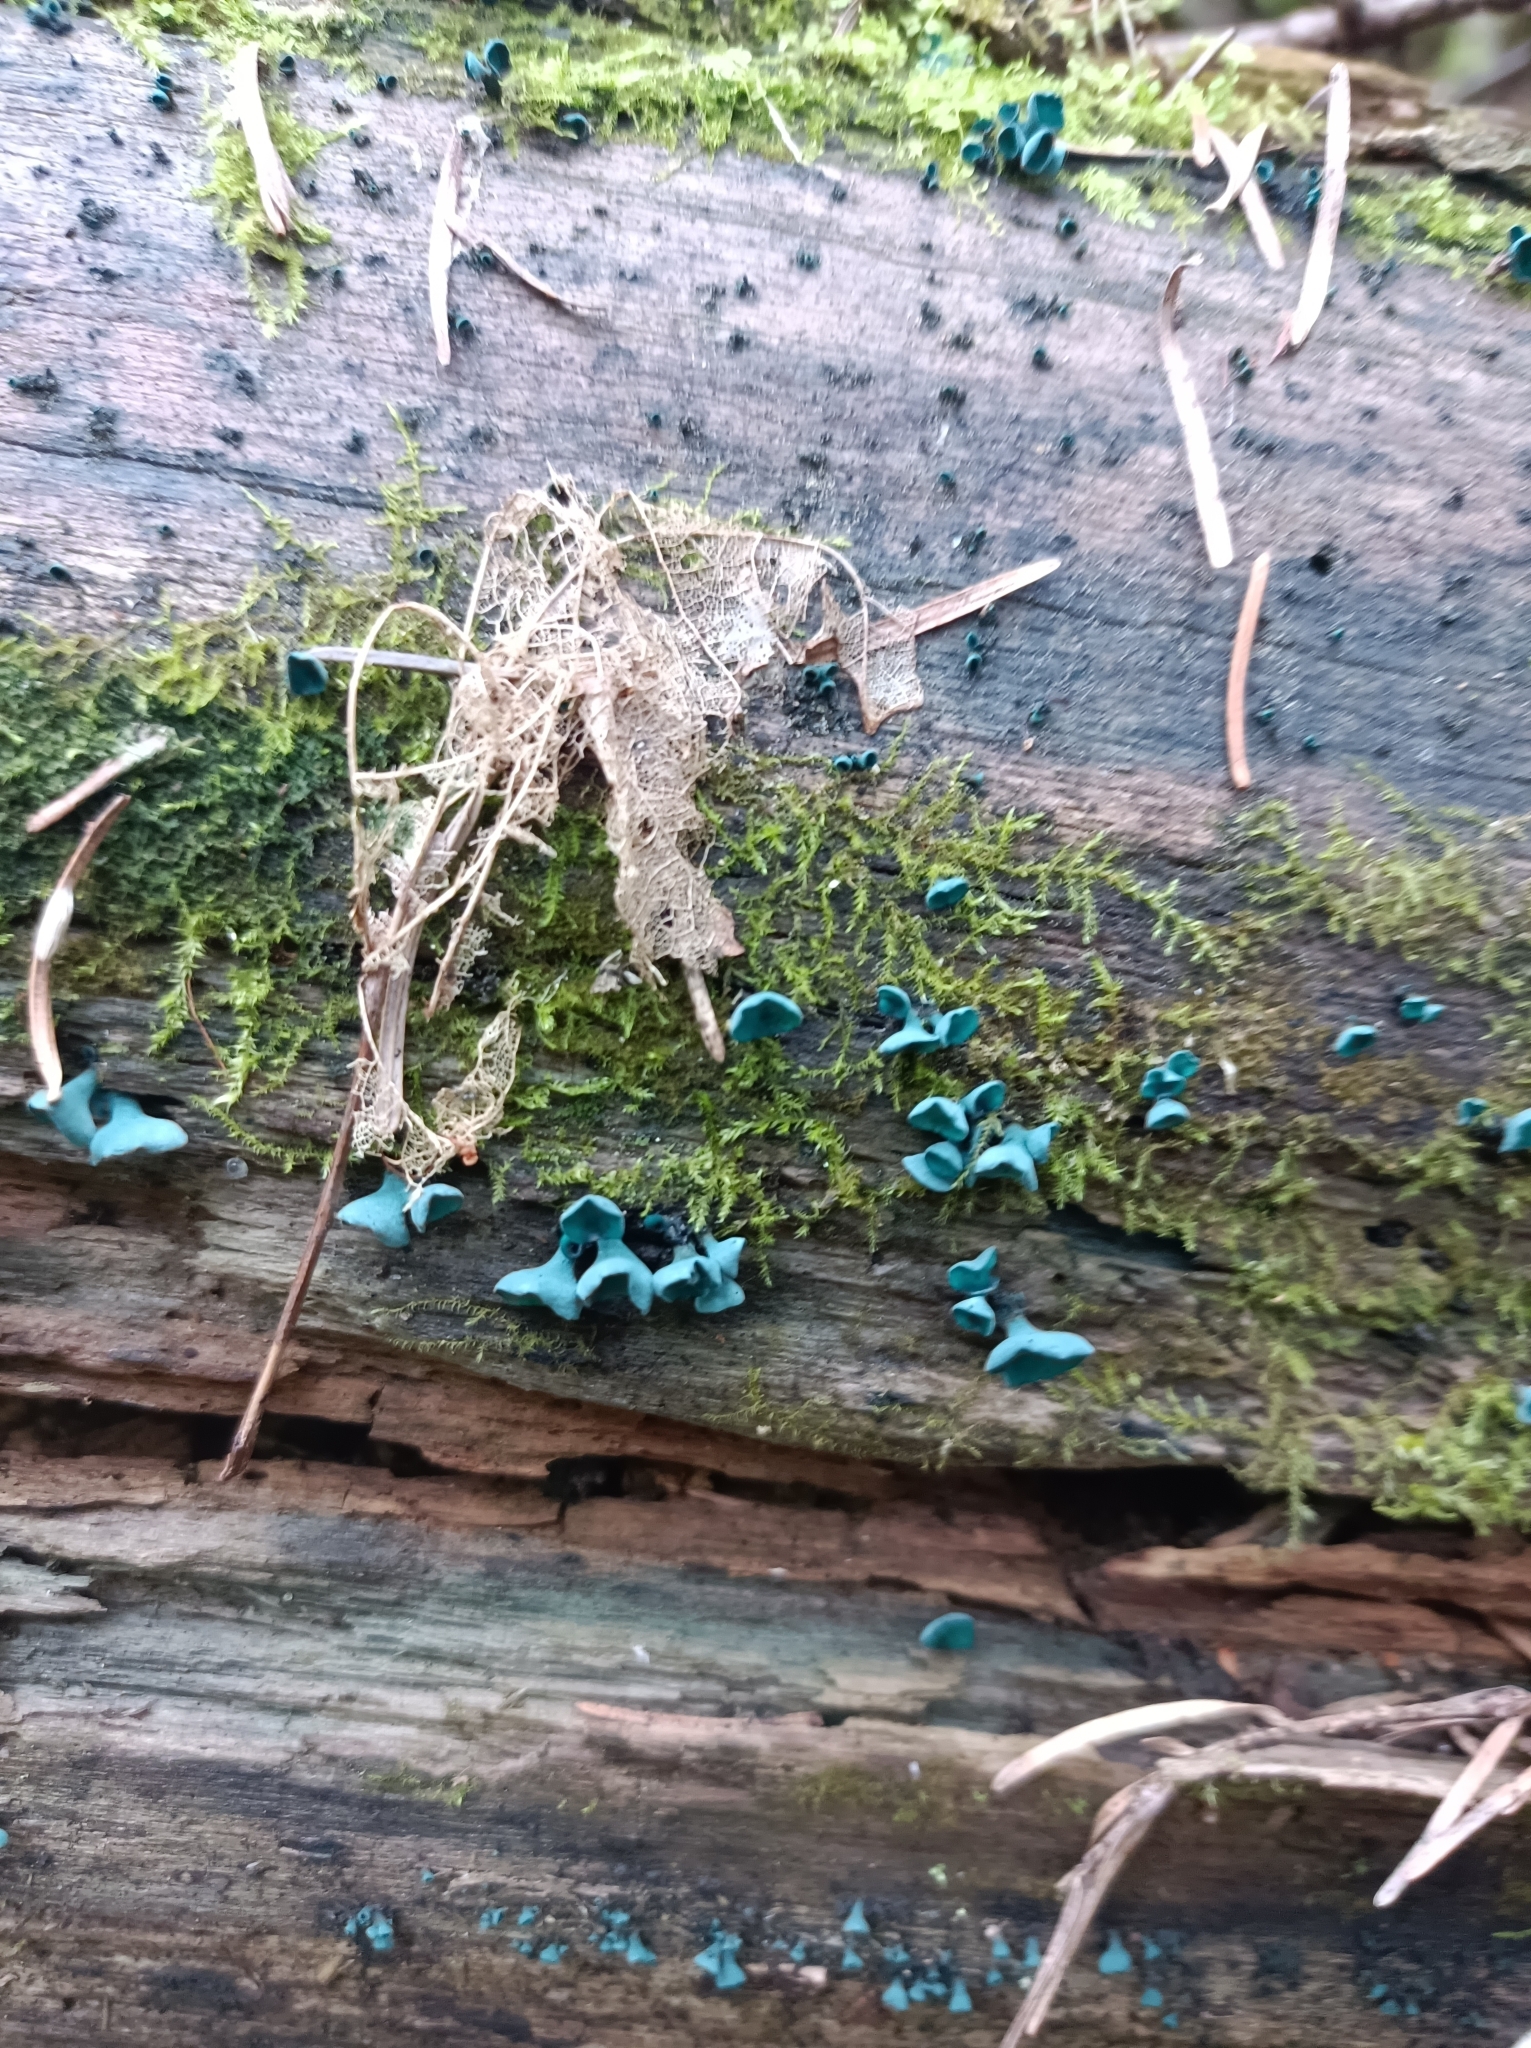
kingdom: Fungi
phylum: Ascomycota
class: Leotiomycetes
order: Helotiales
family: Chlorociboriaceae
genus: Chlorociboria
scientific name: Chlorociboria aeruginascens
